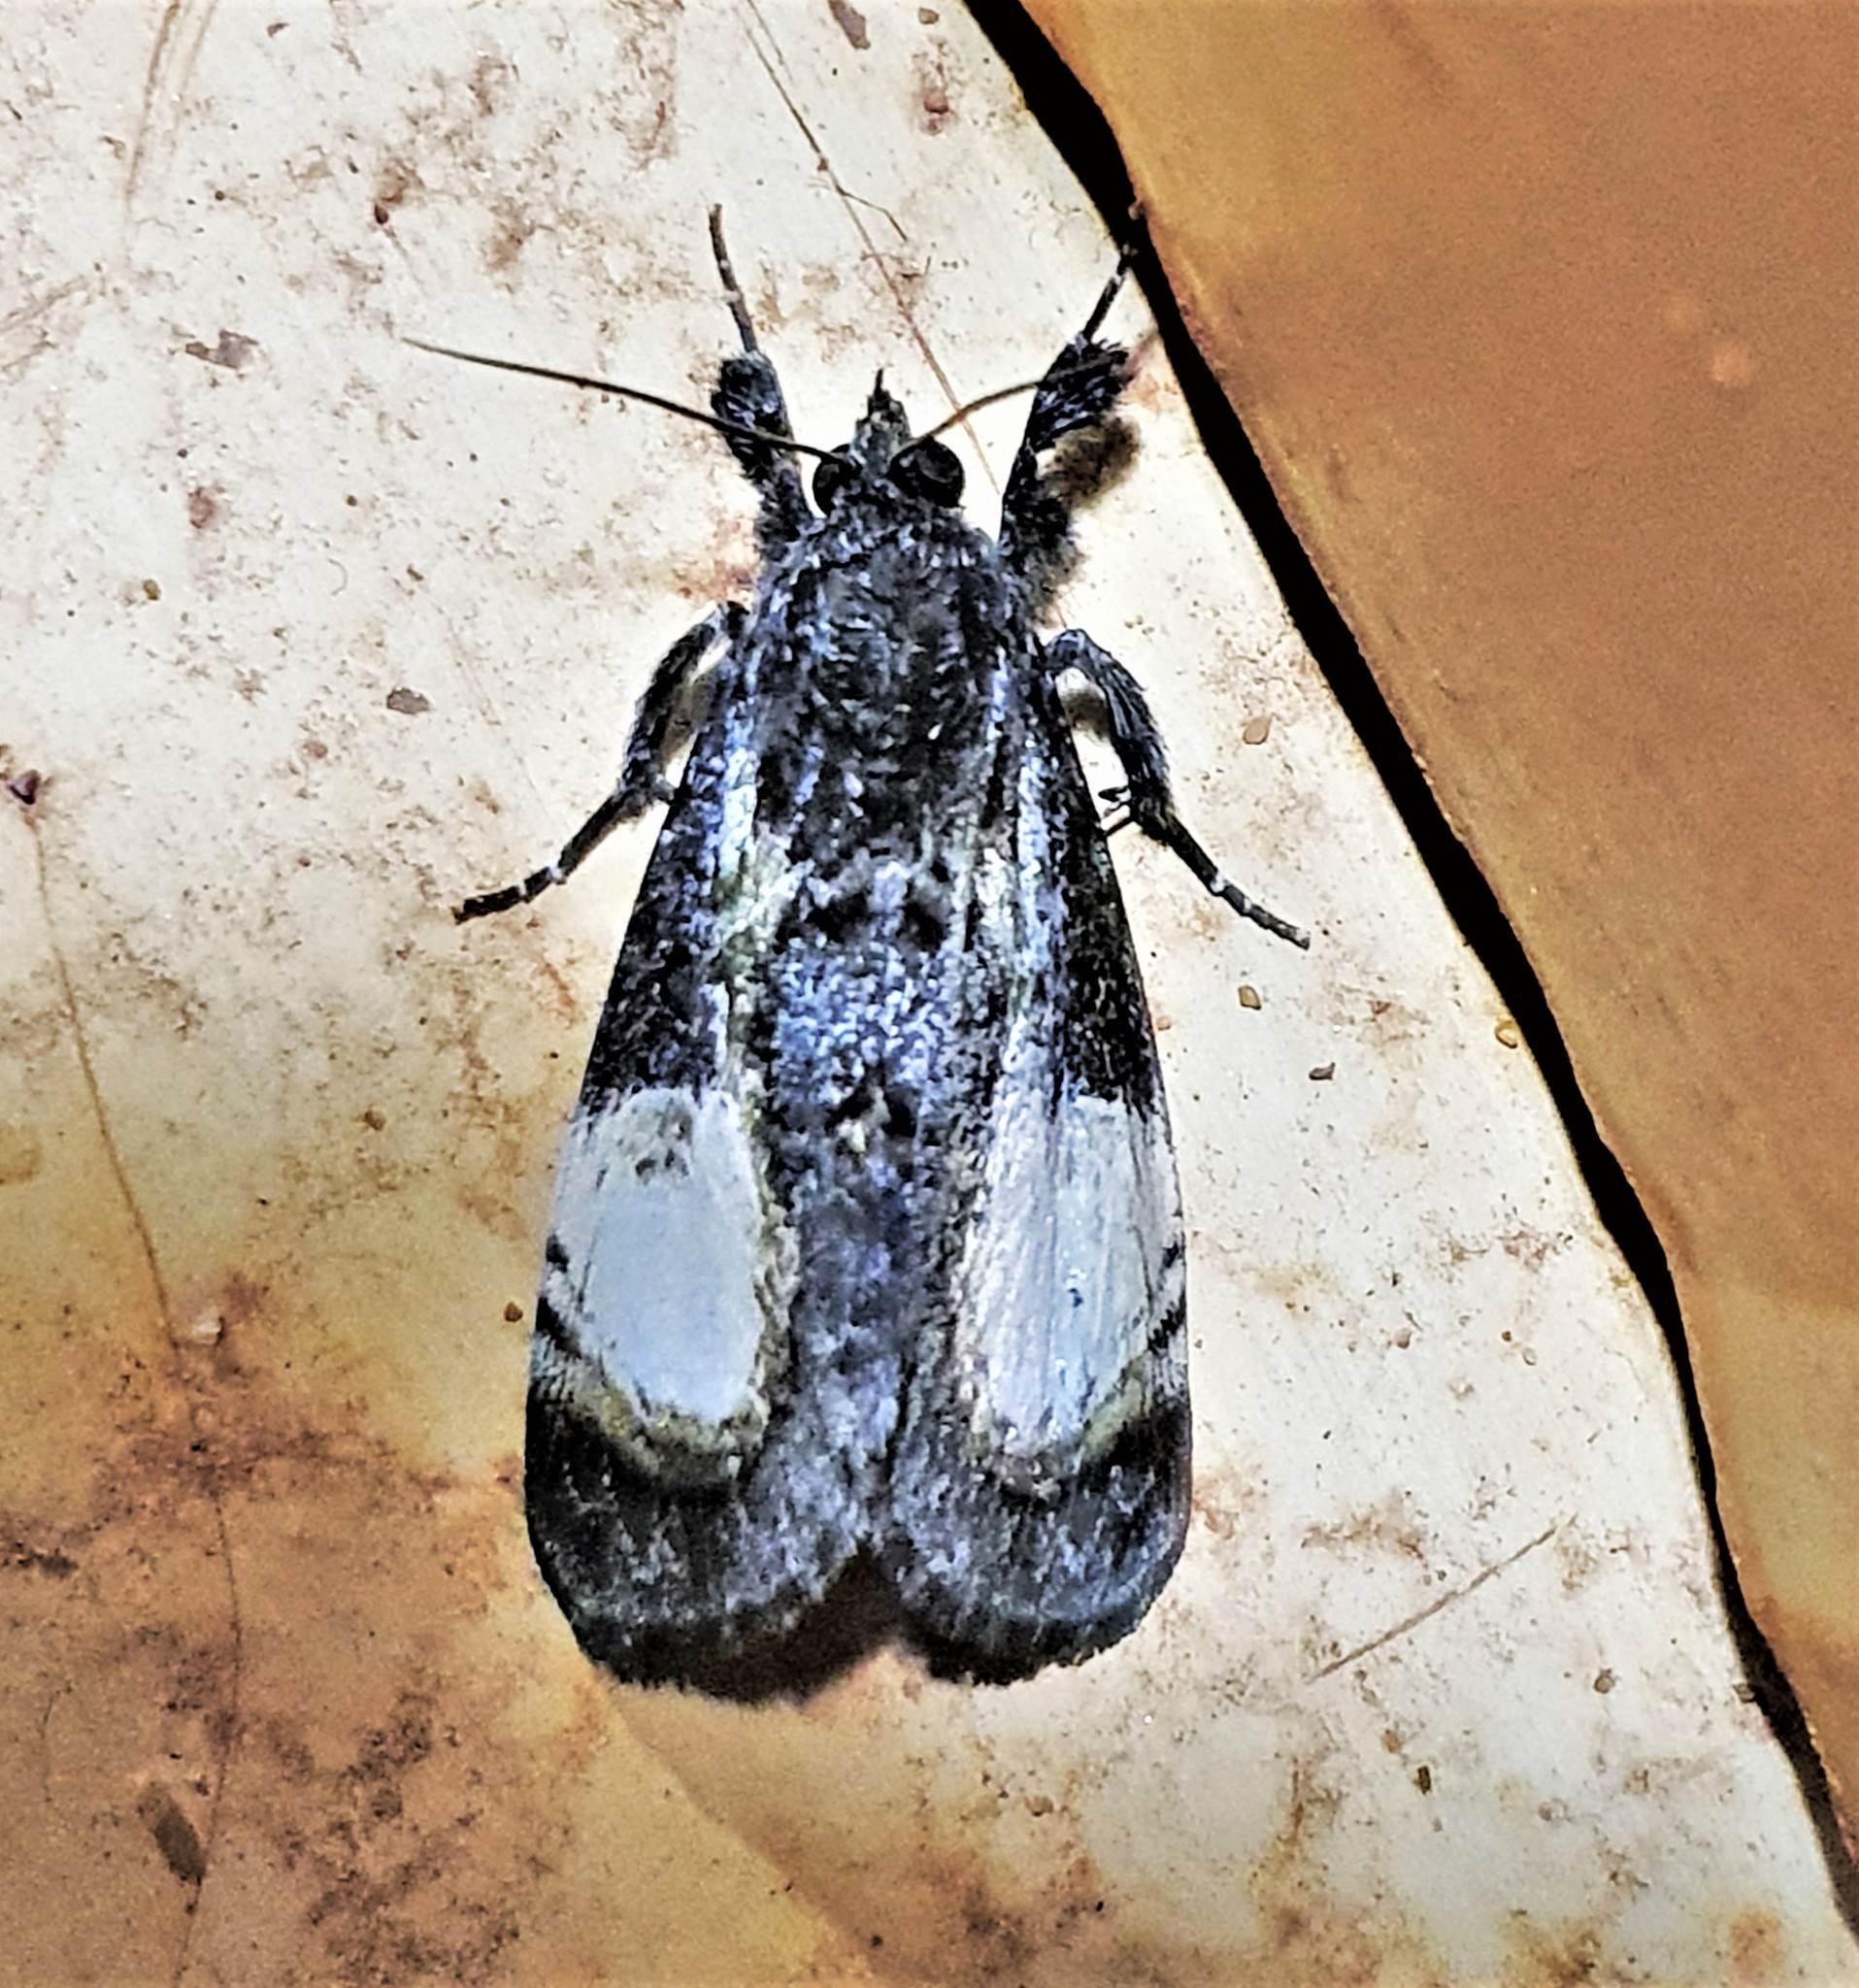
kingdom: Animalia
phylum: Arthropoda
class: Insecta
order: Lepidoptera
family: Noctuidae
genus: Erocha
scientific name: Erocha irrorata
